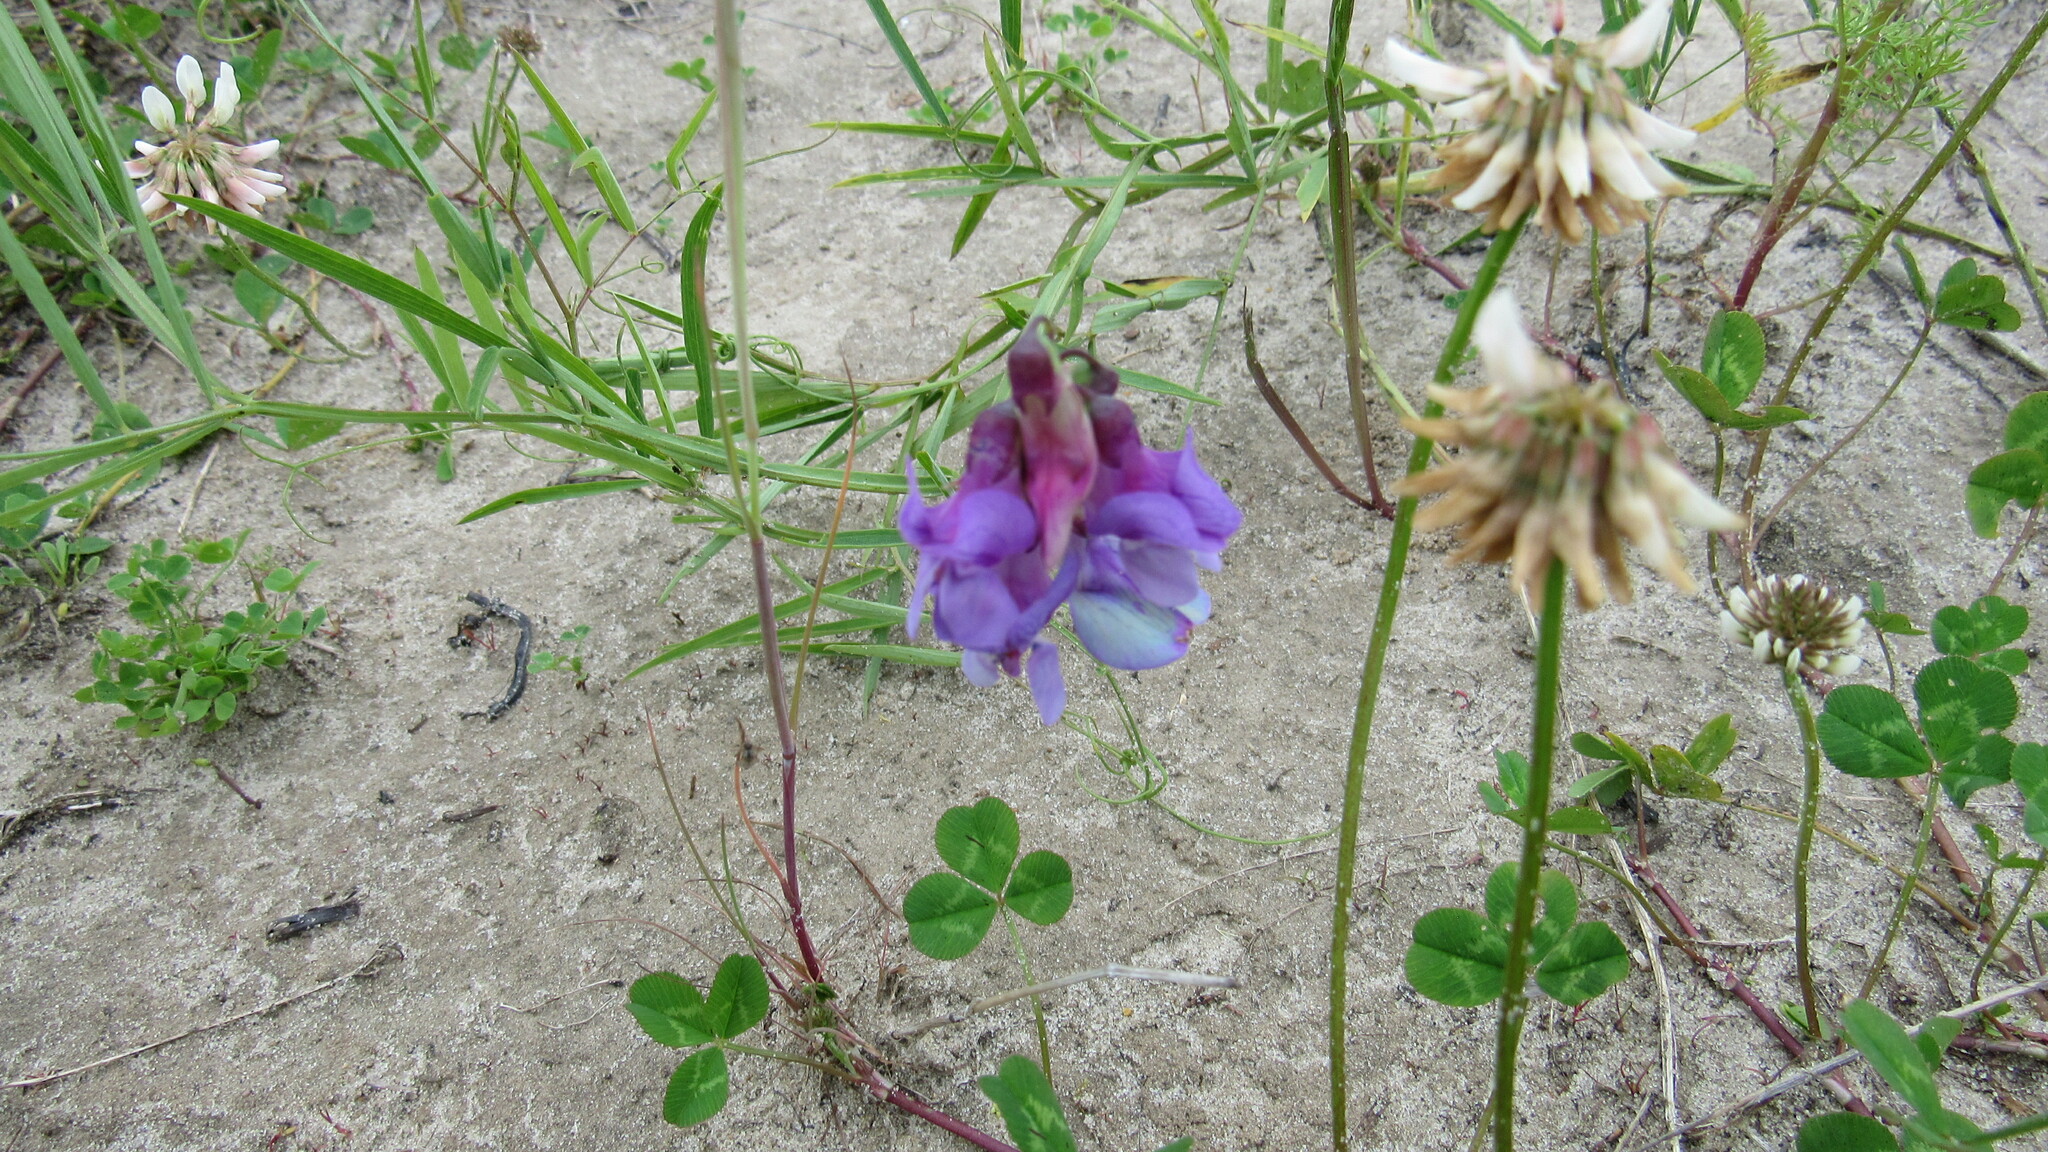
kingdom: Plantae
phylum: Tracheophyta
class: Magnoliopsida
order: Fabales
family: Fabaceae
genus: Lathyrus
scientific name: Lathyrus palustris
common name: Marsh pea
